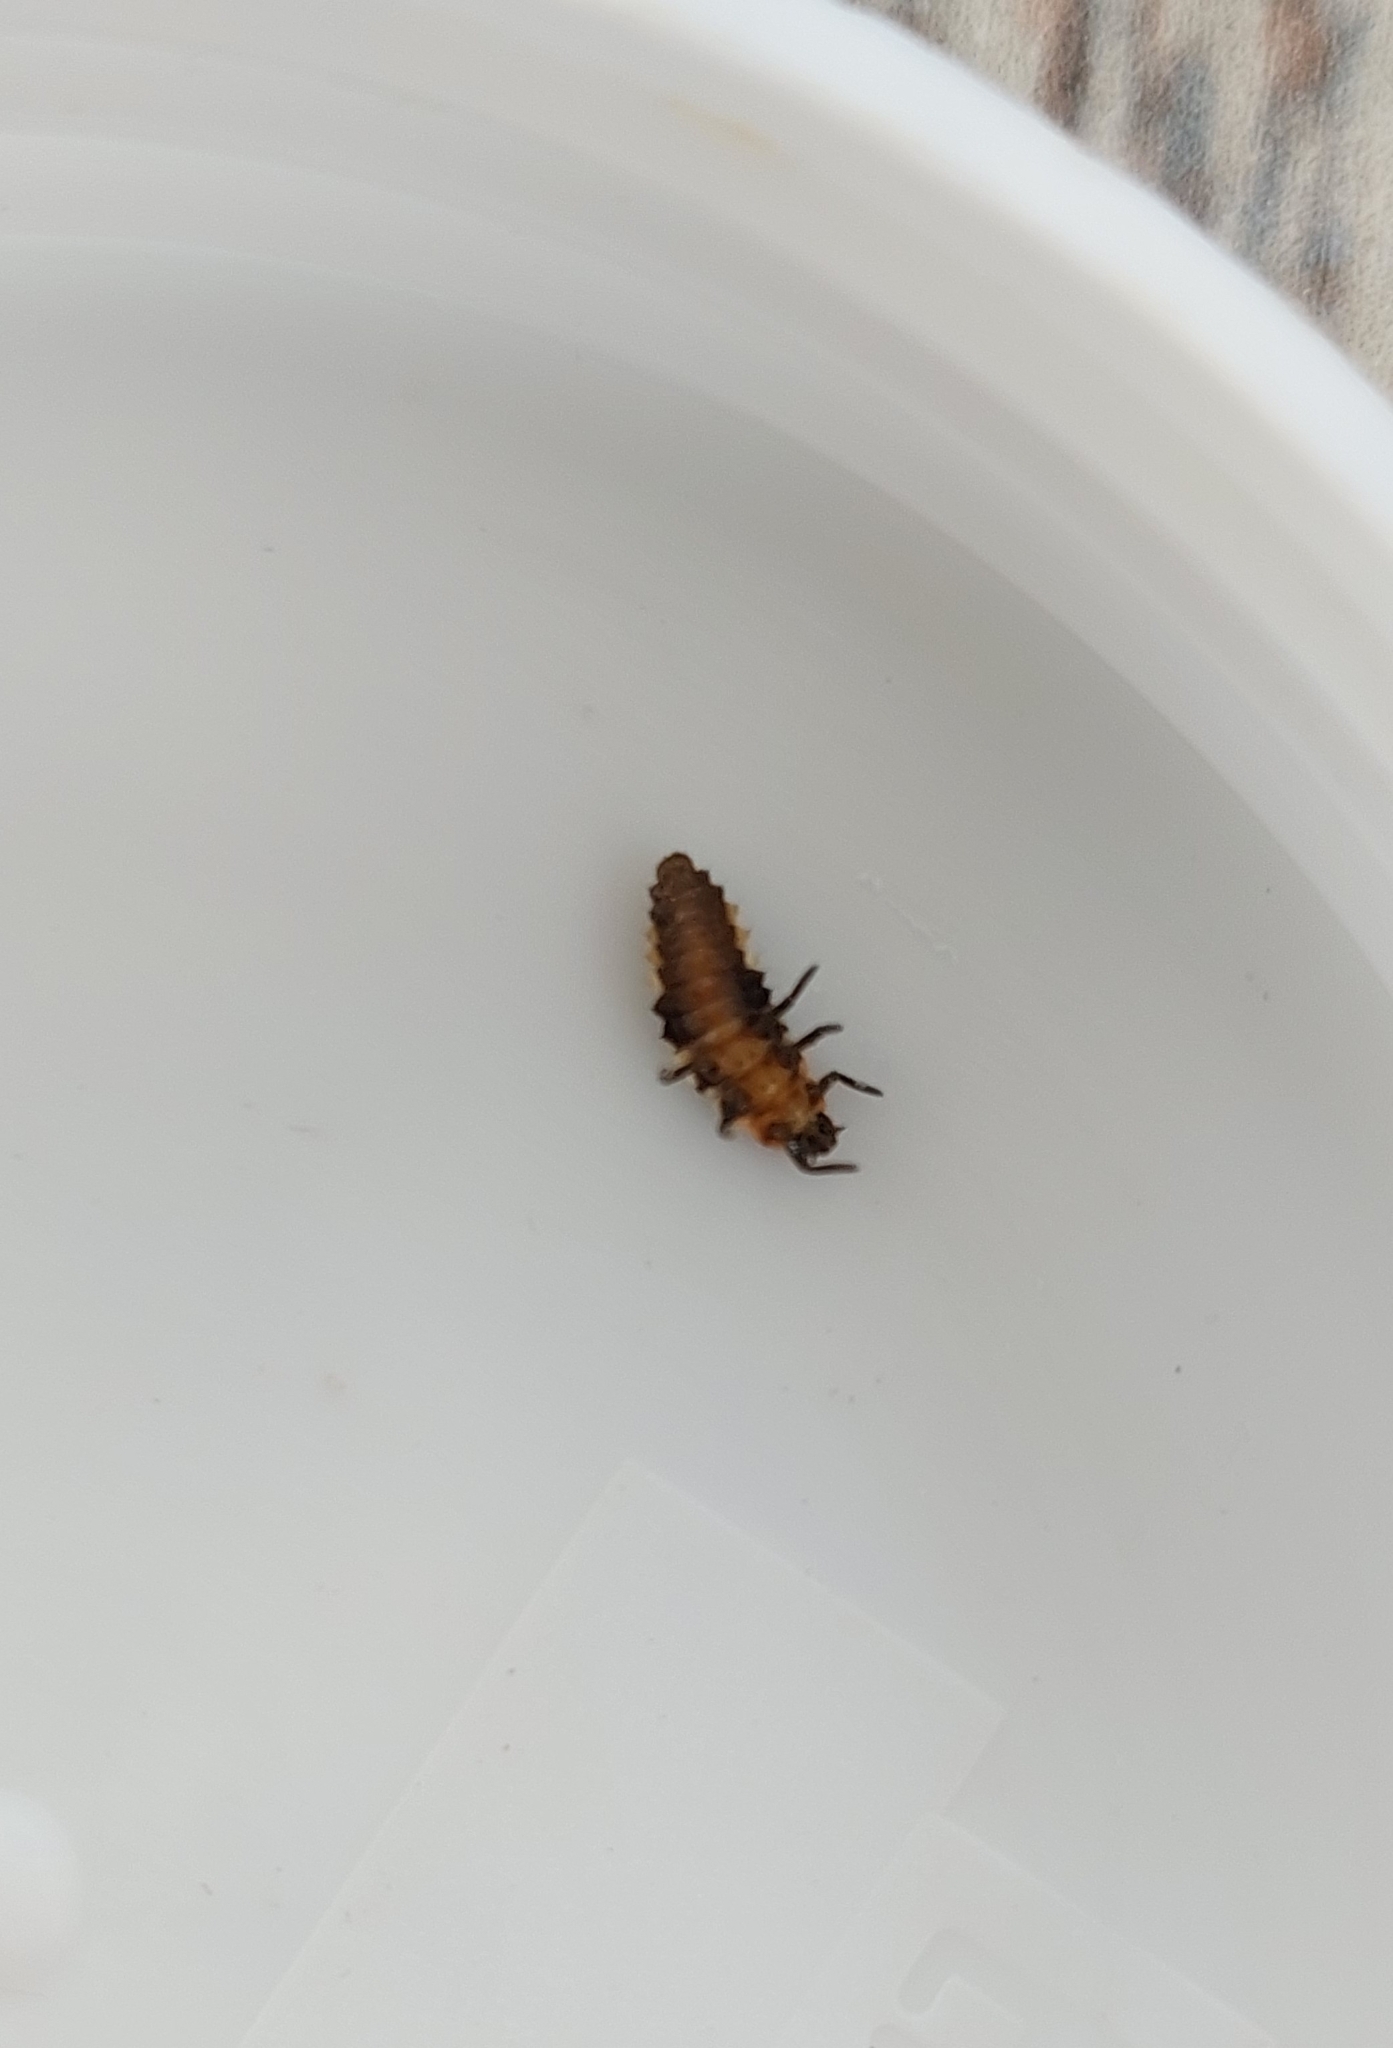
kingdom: Animalia
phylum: Arthropoda
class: Insecta
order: Coleoptera
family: Coccinellidae
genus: Eriopis
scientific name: Eriopis connexa
